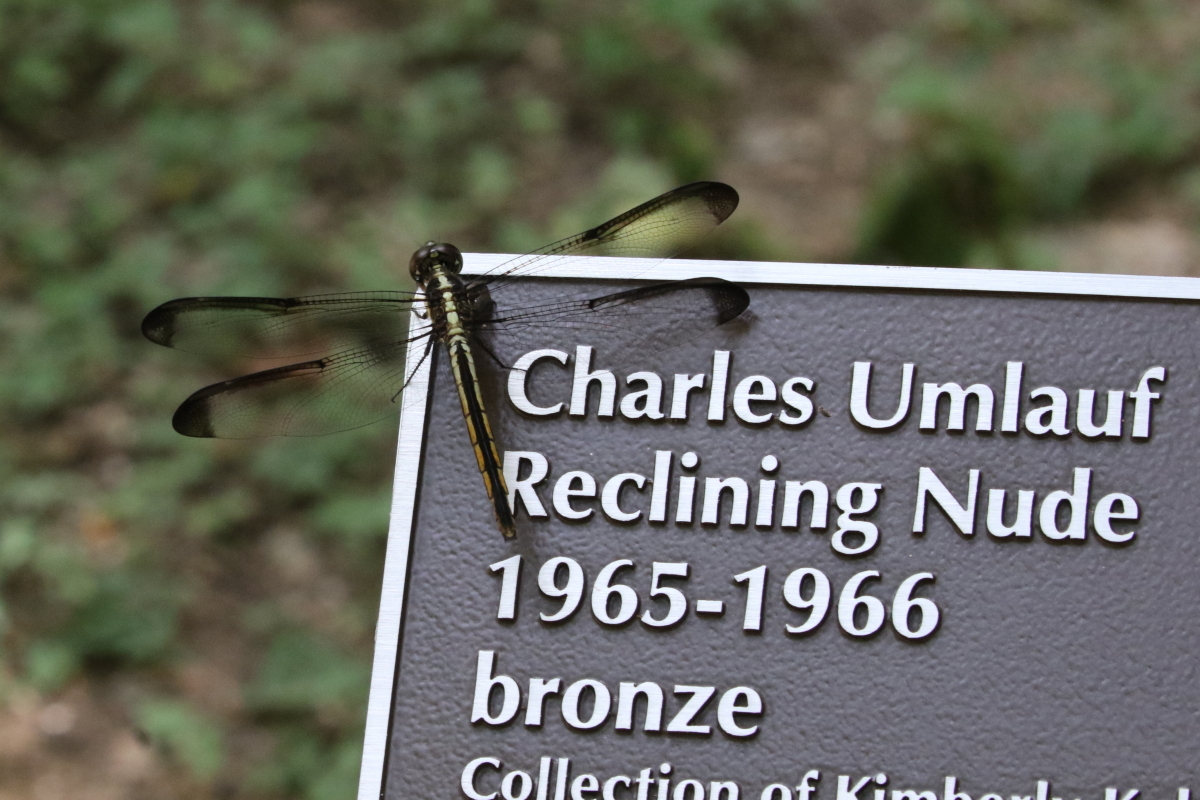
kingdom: Animalia
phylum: Arthropoda
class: Insecta
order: Odonata
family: Libellulidae
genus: Libellula
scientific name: Libellula incesta
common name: Slaty skimmer
